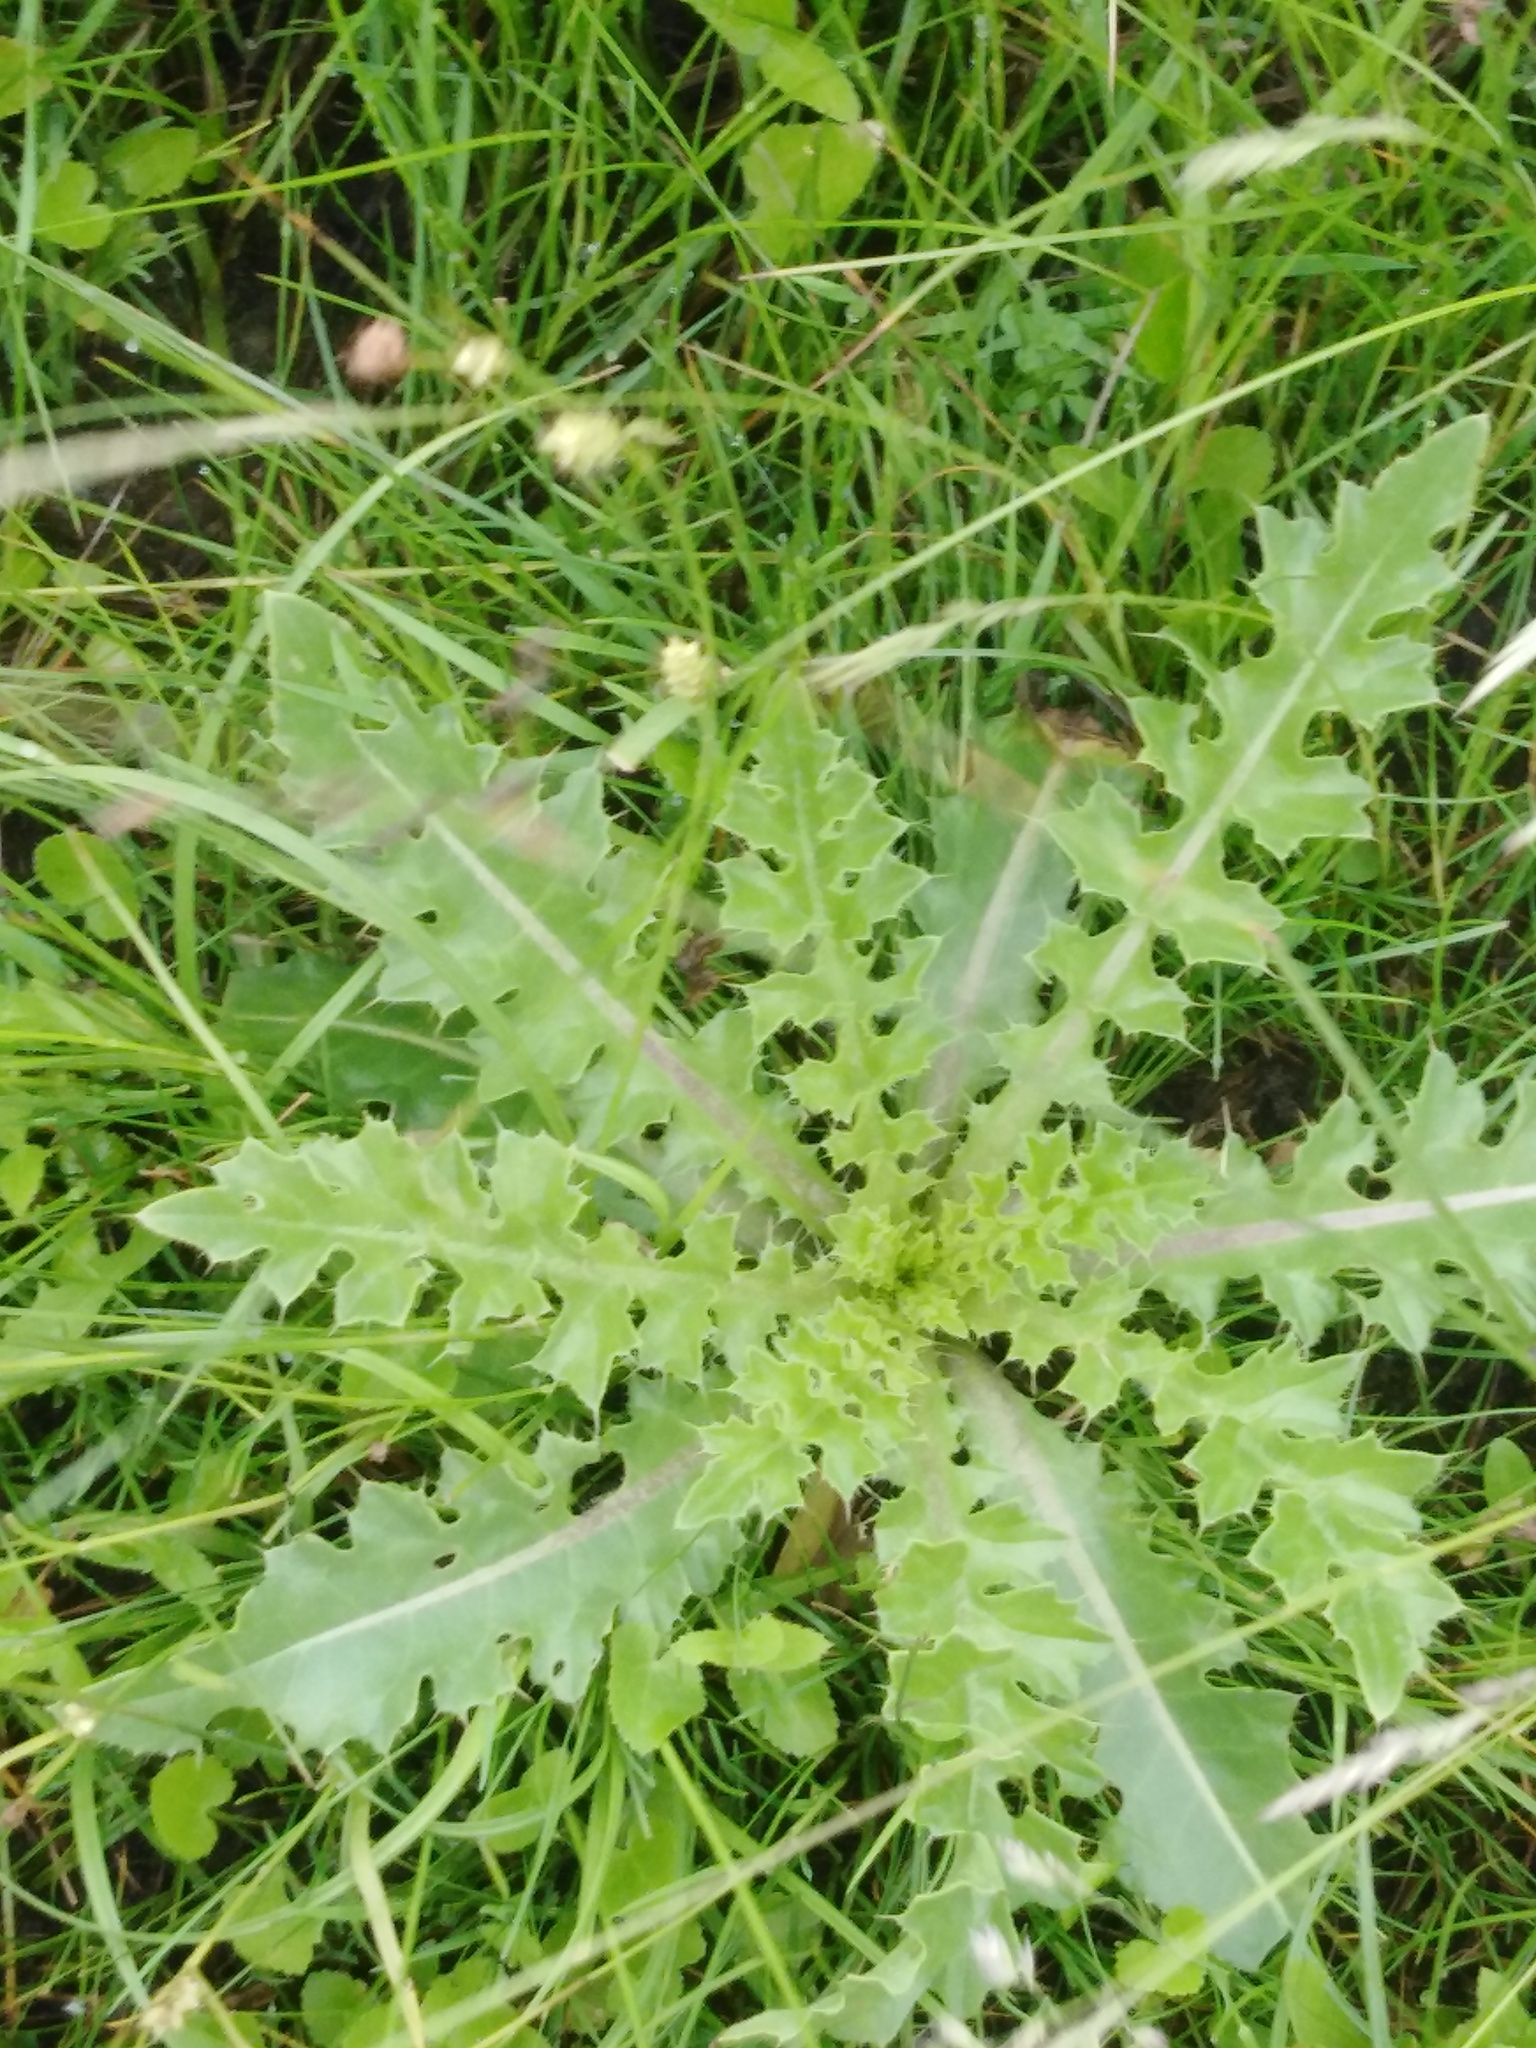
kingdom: Plantae
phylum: Tracheophyta
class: Magnoliopsida
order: Asterales
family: Asteraceae
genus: Cirsium
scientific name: Cirsium esculentum
